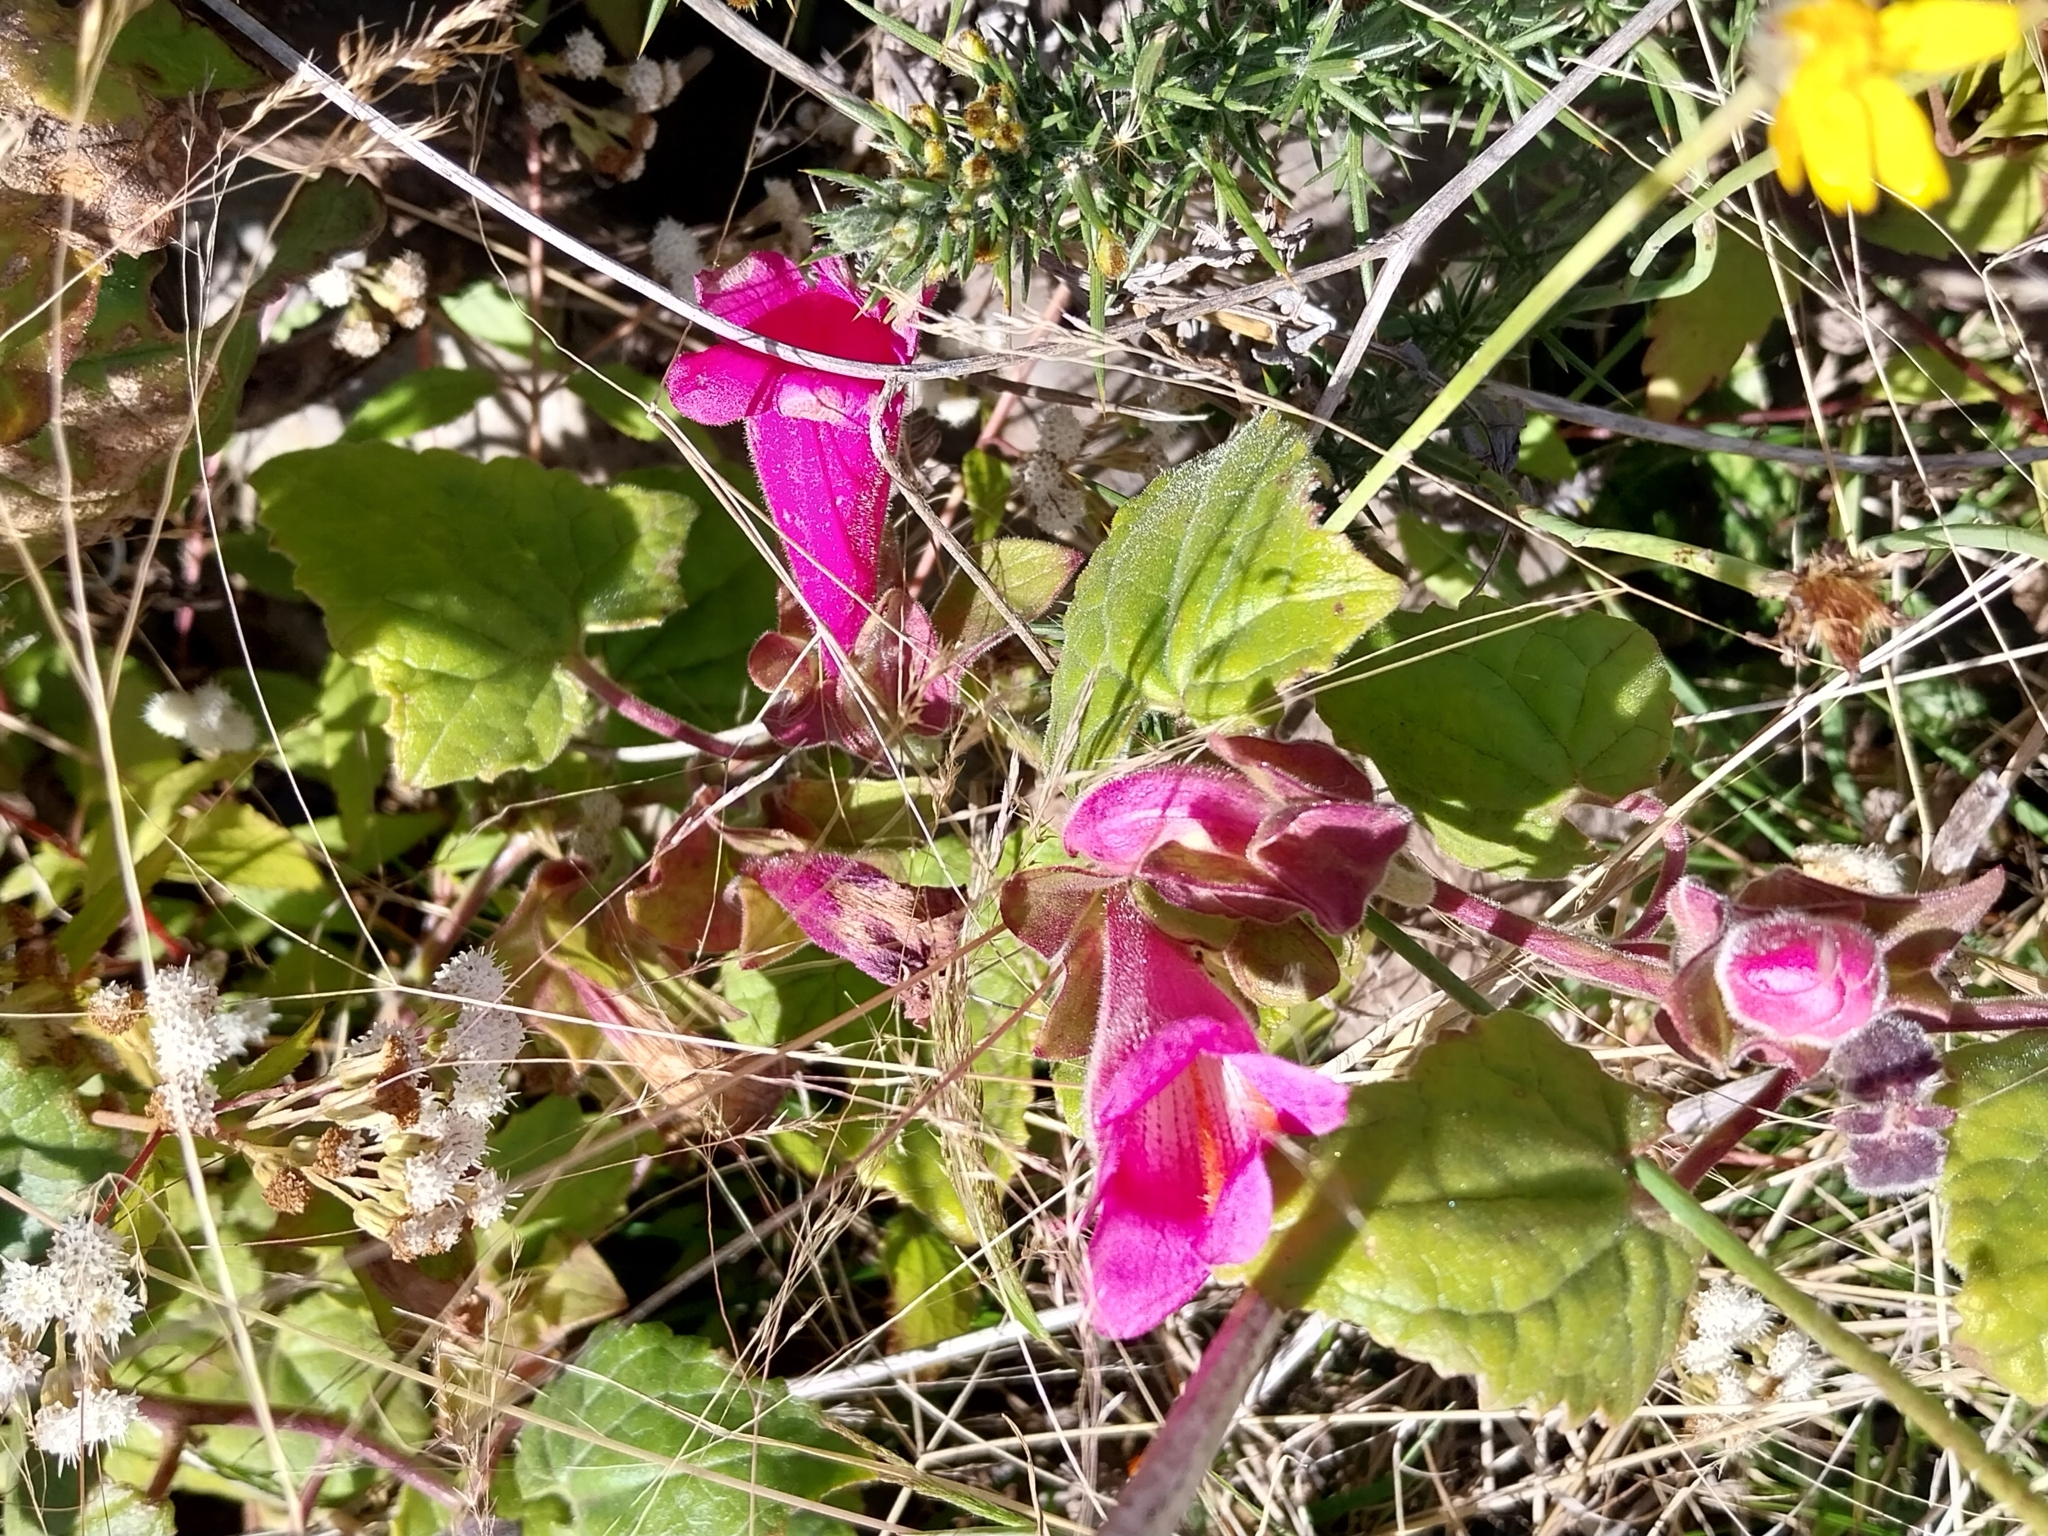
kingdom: Plantae
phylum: Tracheophyta
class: Magnoliopsida
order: Lamiales
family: Plantaginaceae
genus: Lophospermum
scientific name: Lophospermum erubescens
